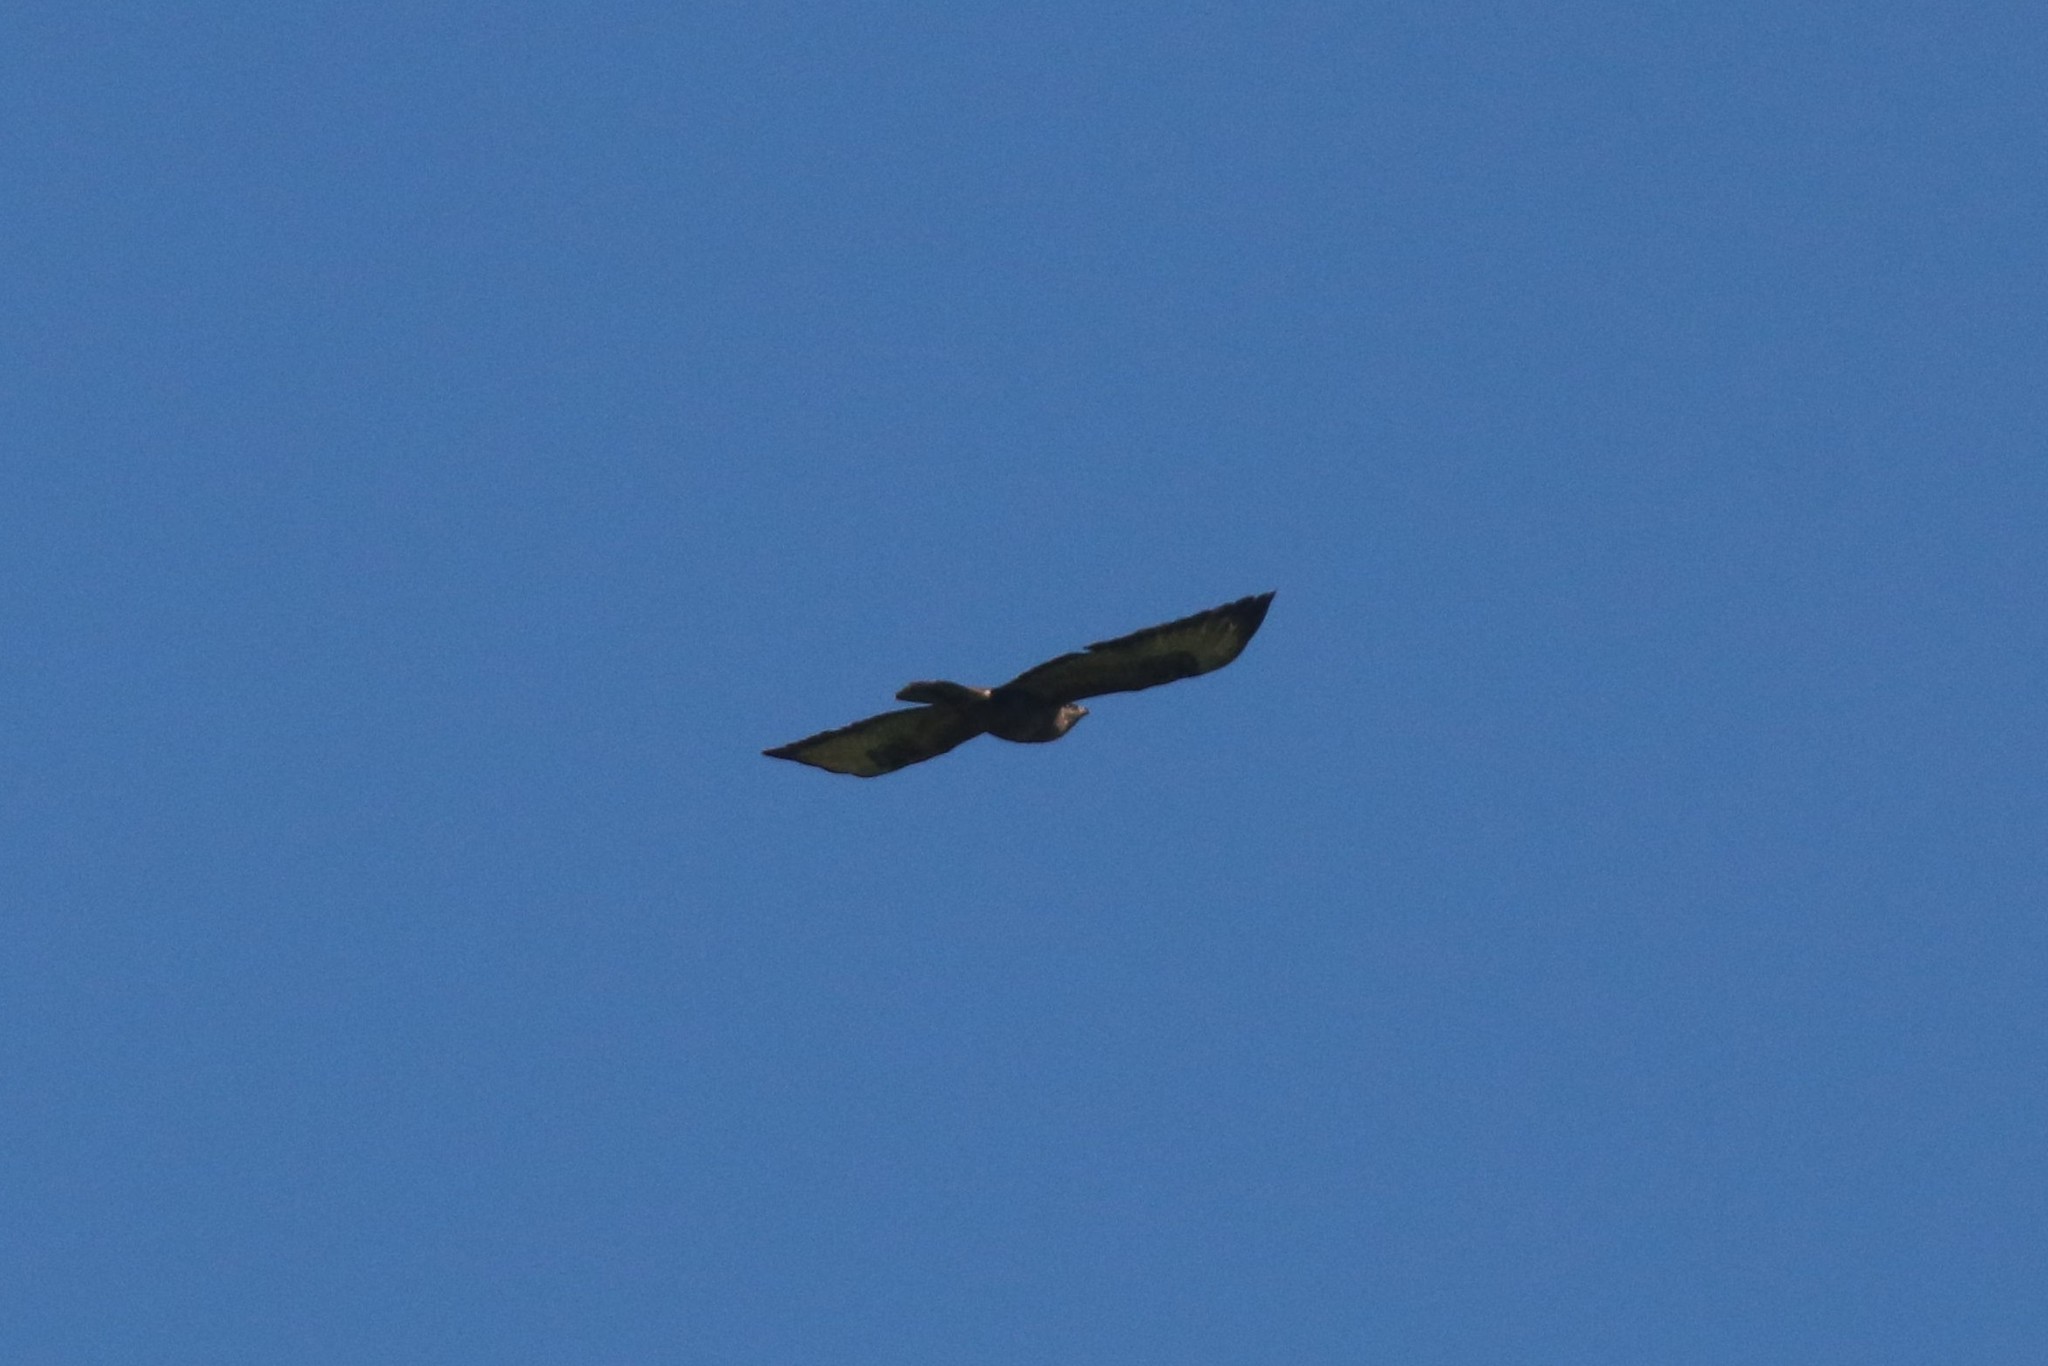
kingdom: Animalia
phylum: Chordata
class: Aves
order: Accipitriformes
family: Accipitridae
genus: Buteo
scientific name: Buteo buteo
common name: Common buzzard
